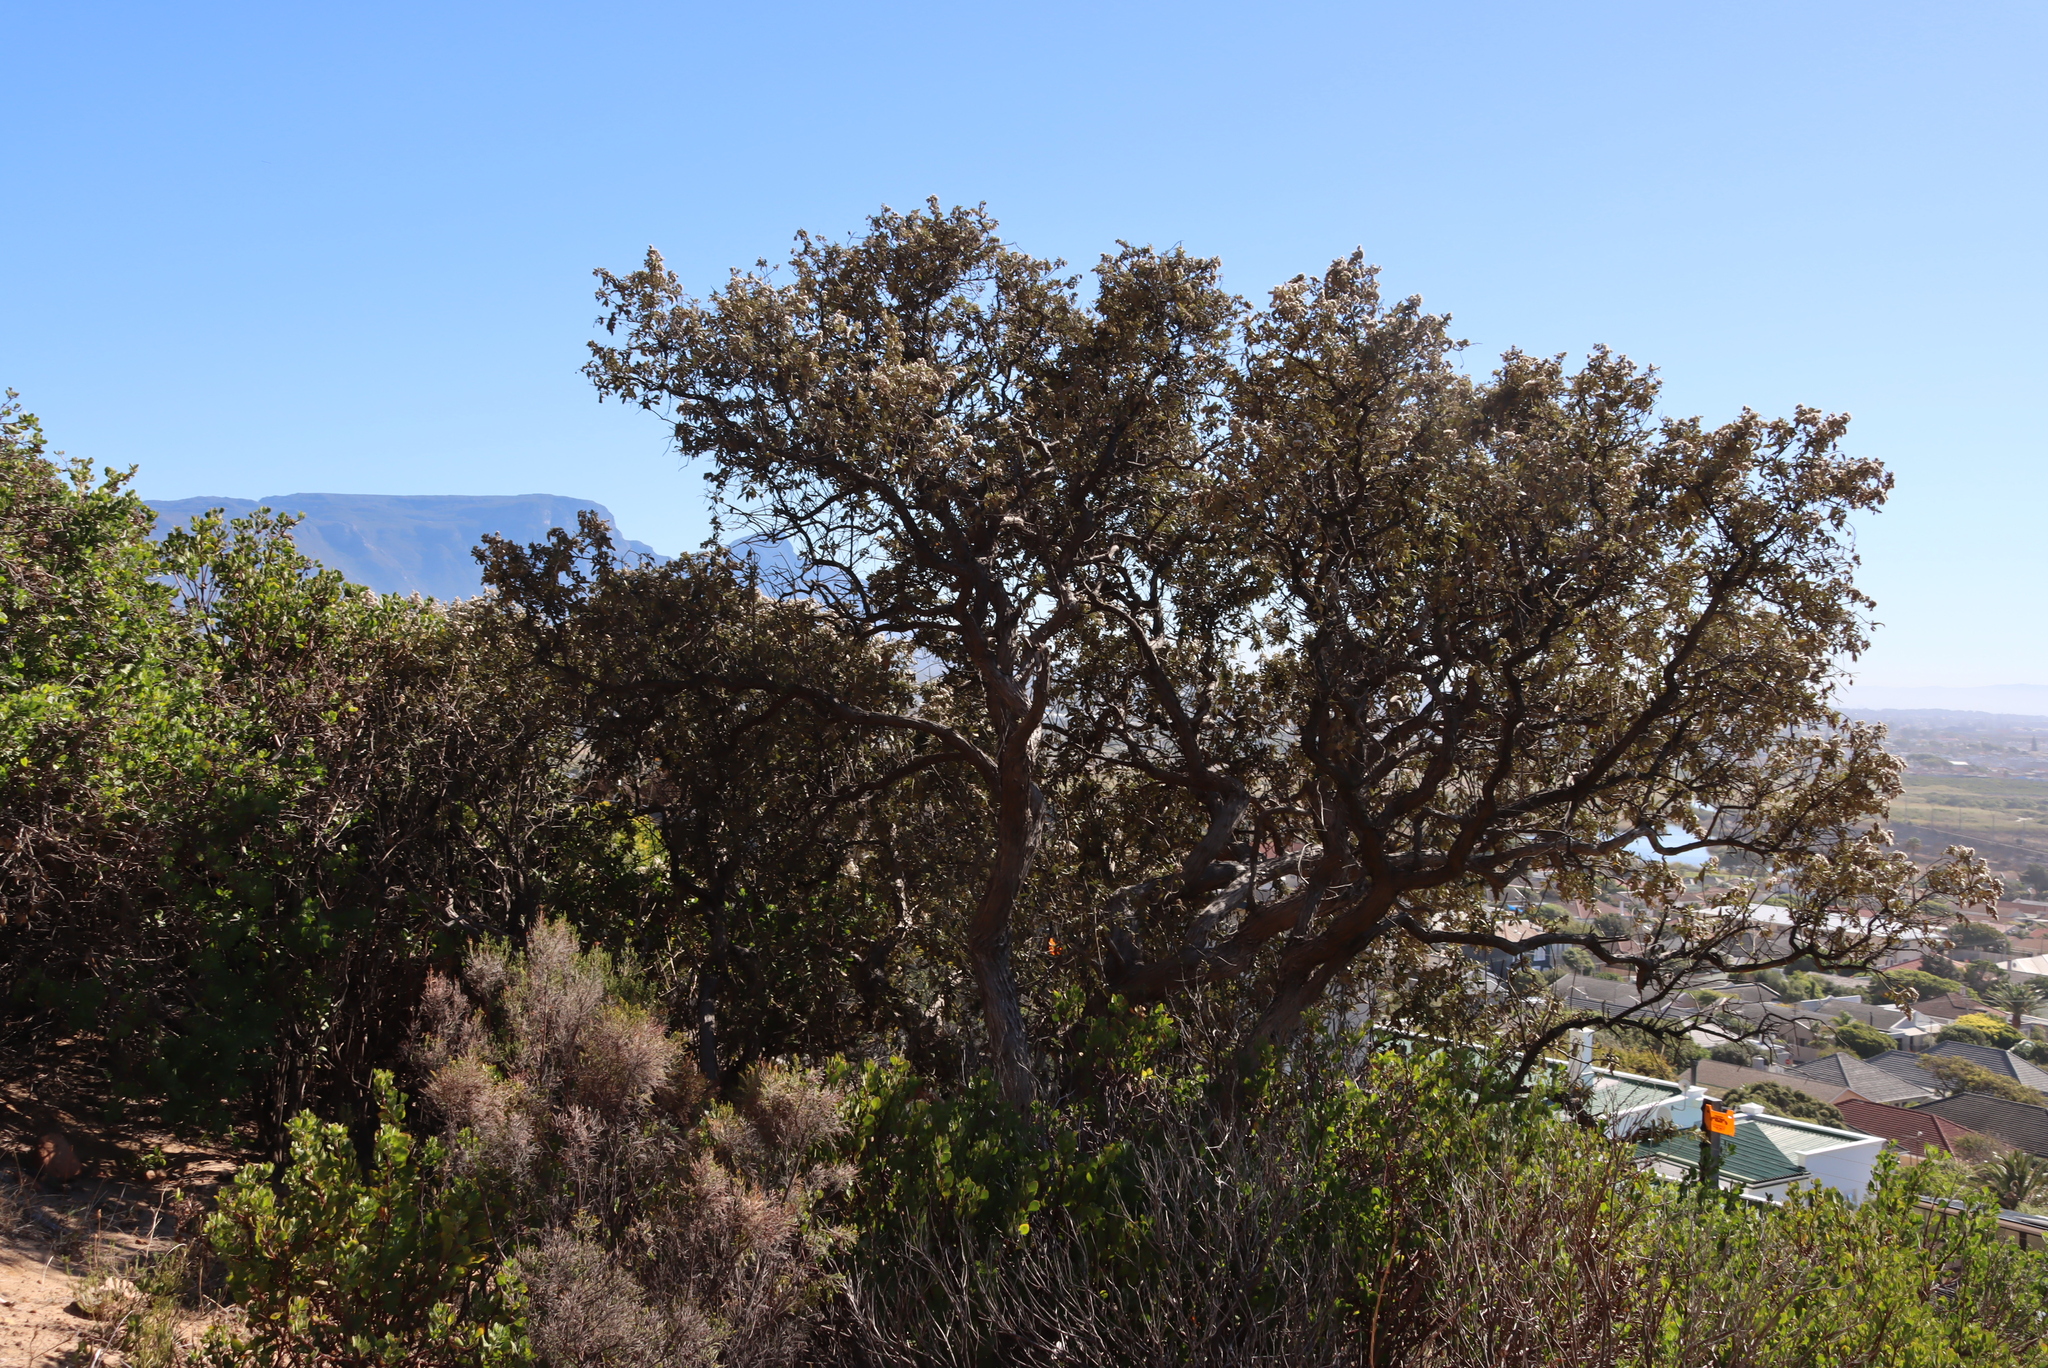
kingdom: Plantae
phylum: Tracheophyta
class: Magnoliopsida
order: Asterales
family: Asteraceae
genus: Tarchonanthus
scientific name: Tarchonanthus littoralis
